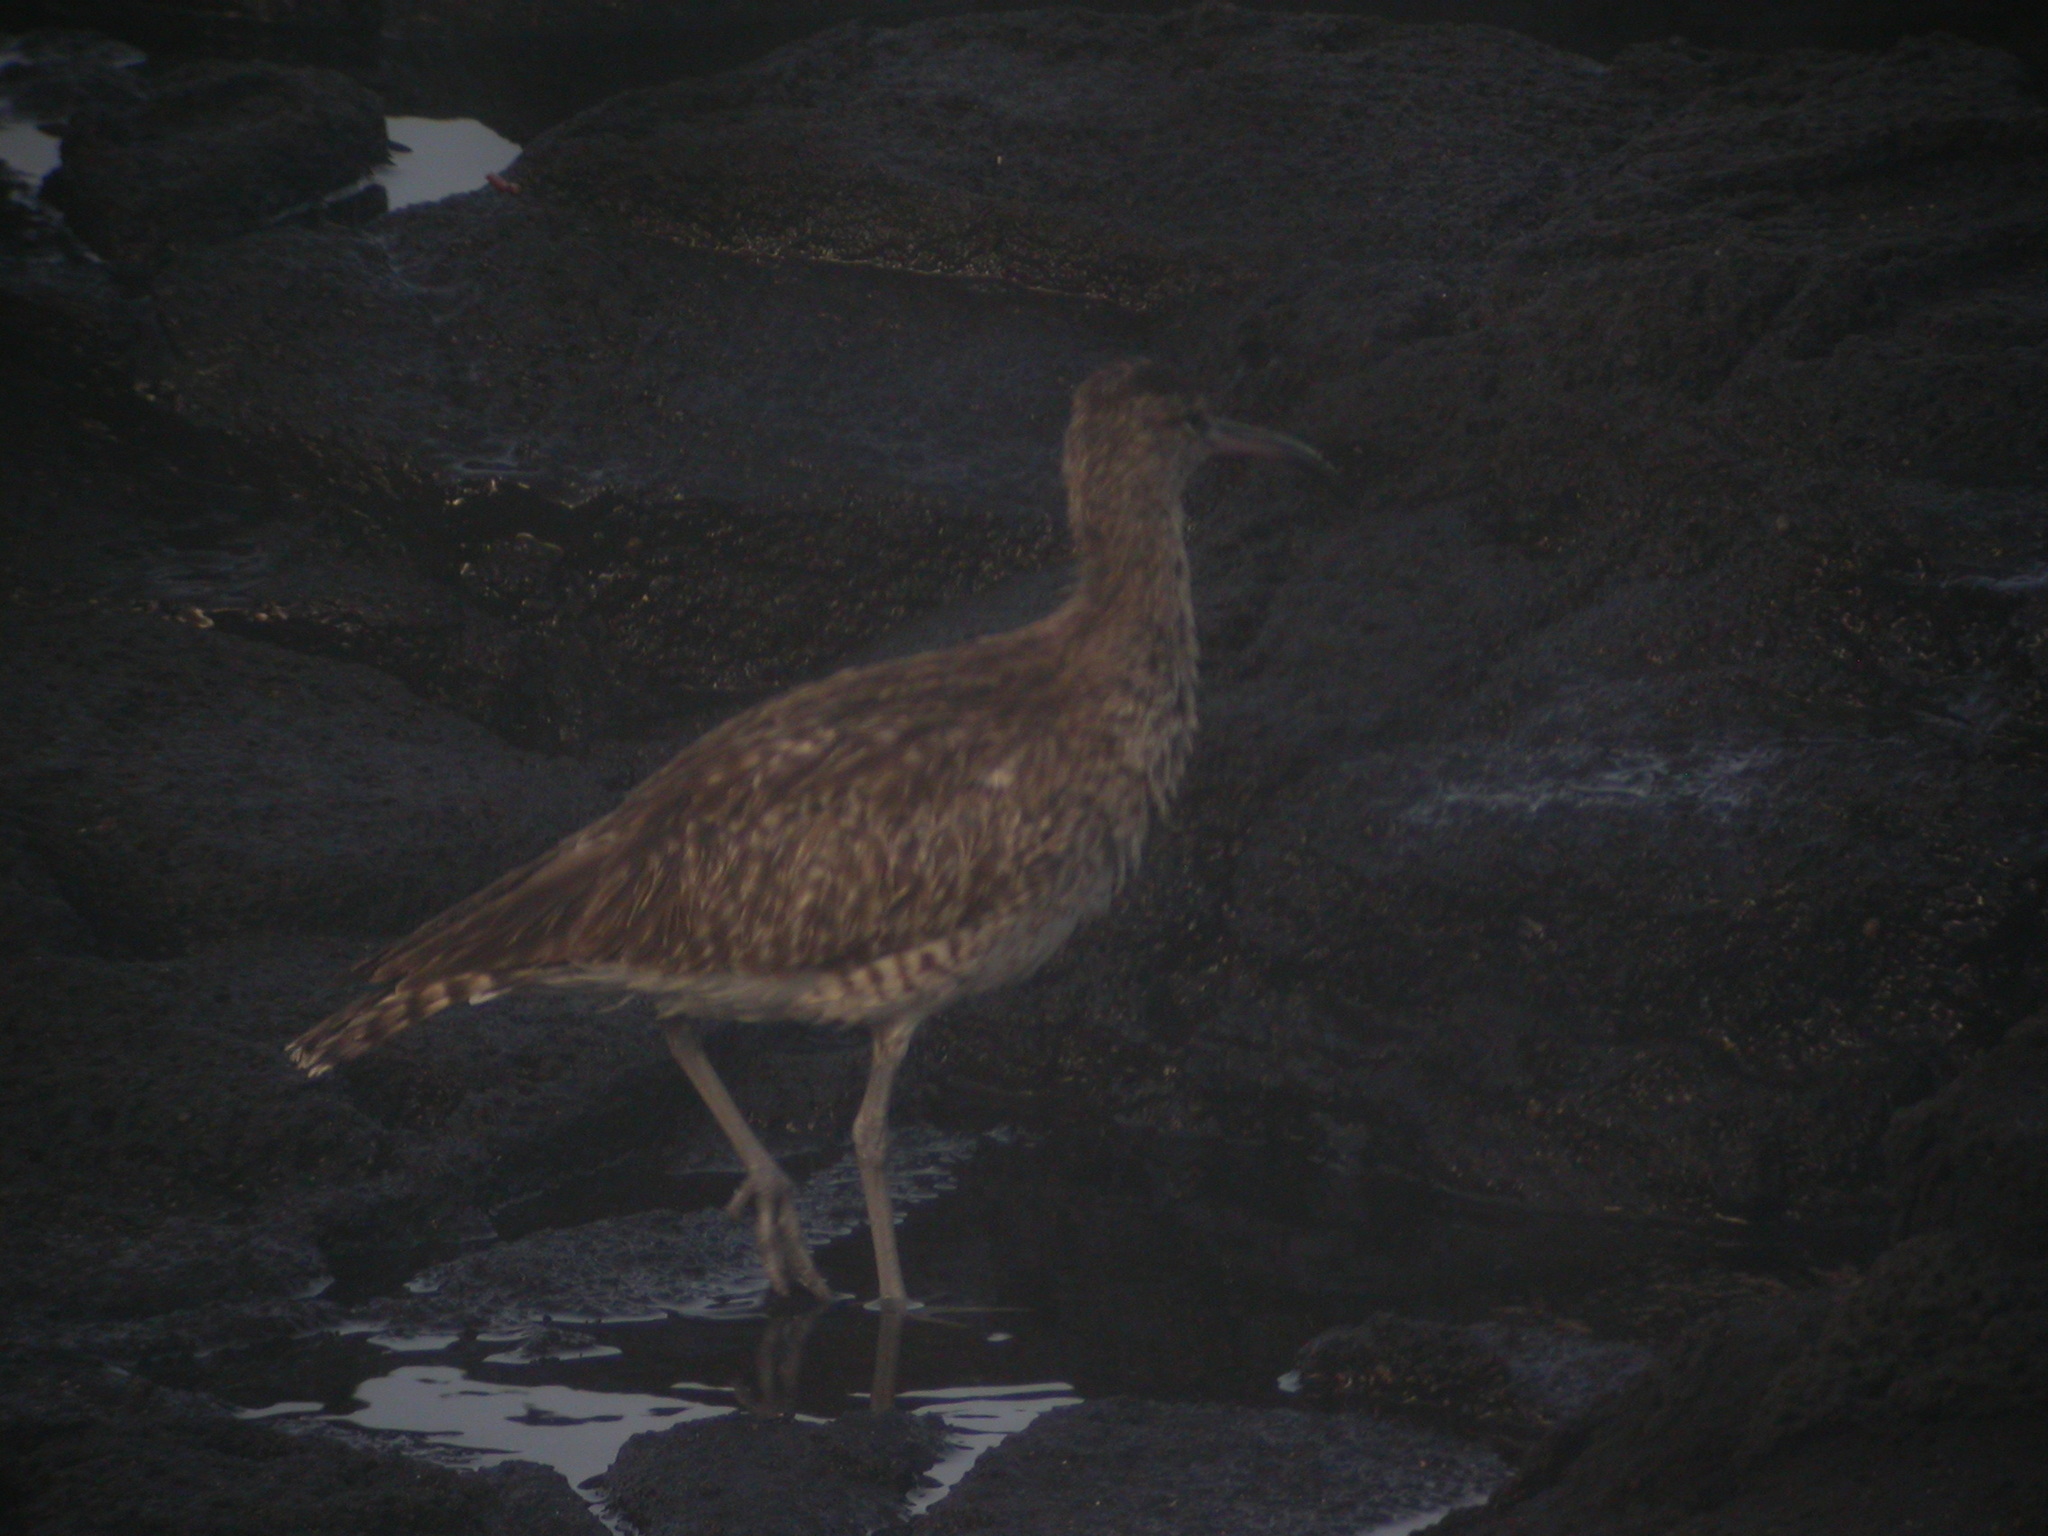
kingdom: Animalia
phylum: Chordata
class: Aves
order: Charadriiformes
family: Scolopacidae
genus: Numenius
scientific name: Numenius phaeopus
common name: Whimbrel
